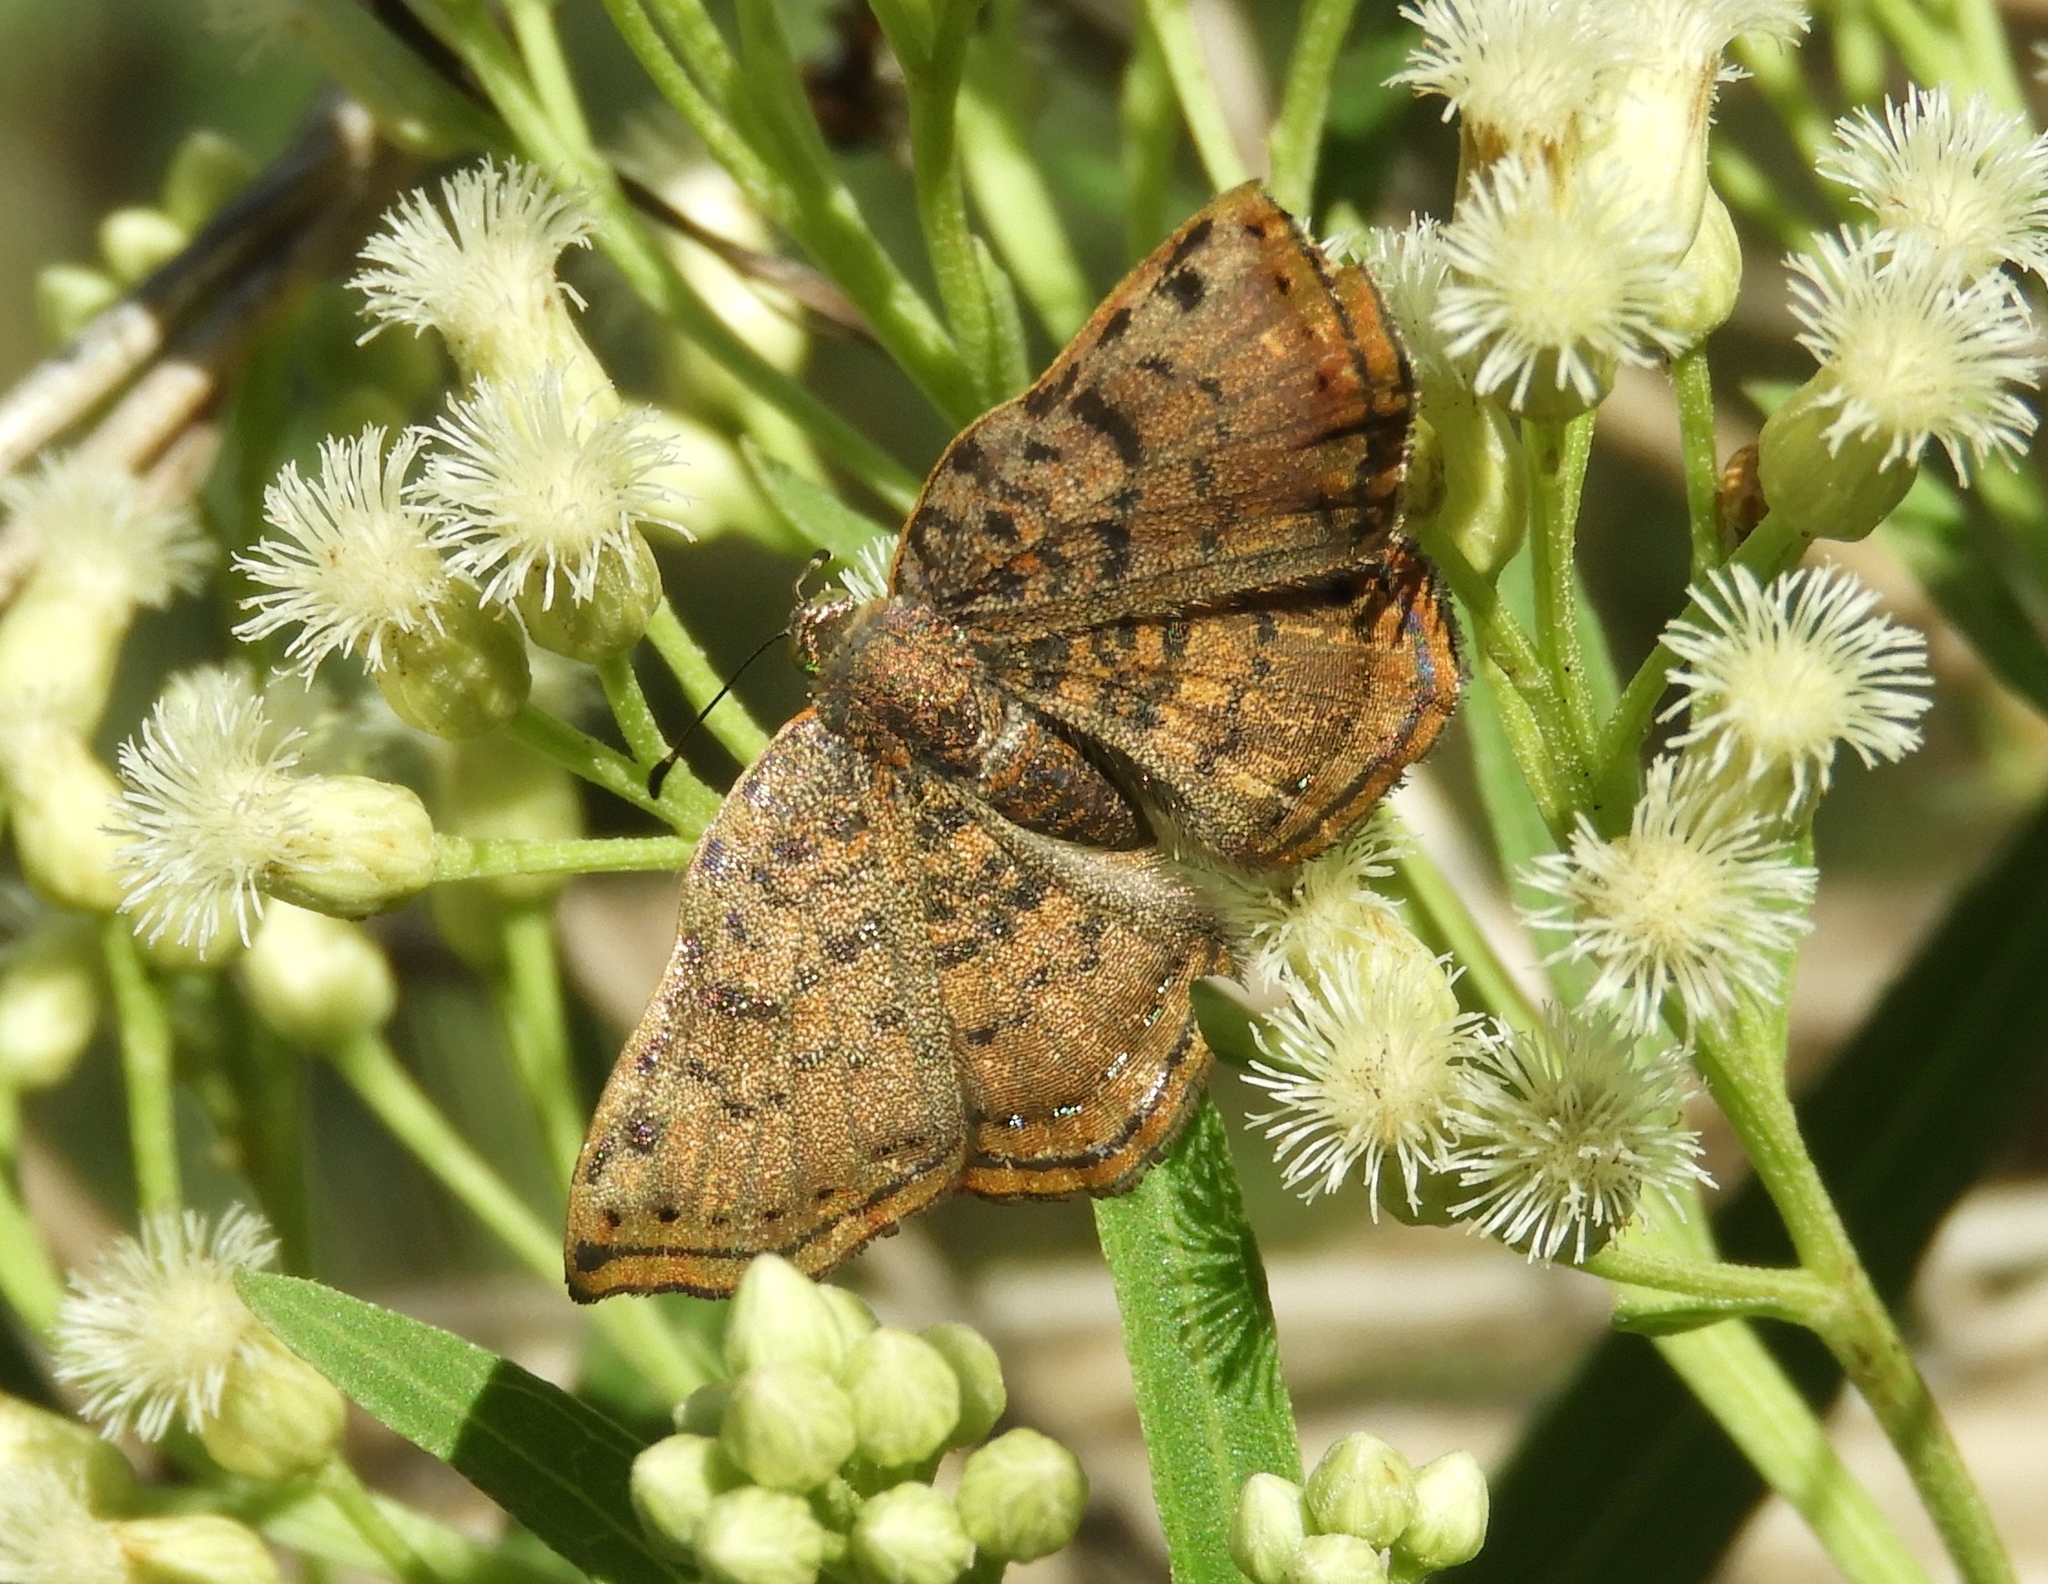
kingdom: Animalia
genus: Caria
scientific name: Caria ino
